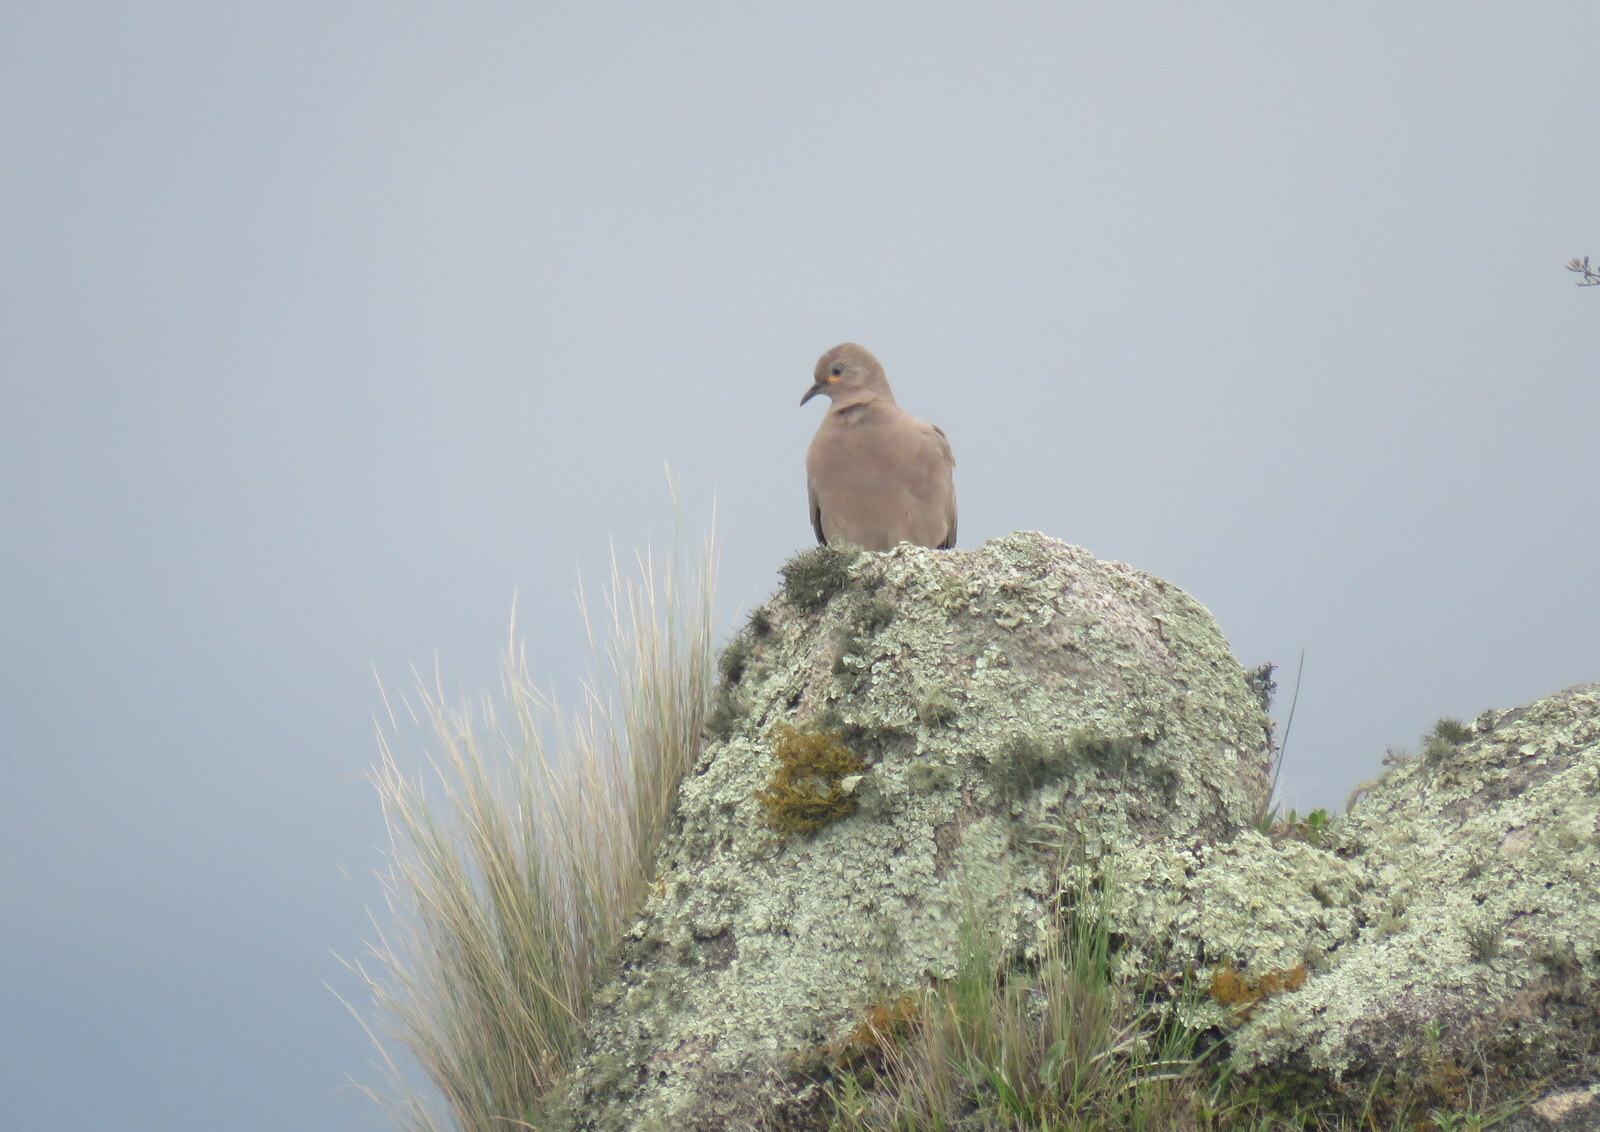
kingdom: Animalia
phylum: Chordata
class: Aves
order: Columbiformes
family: Columbidae
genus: Metriopelia
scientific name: Metriopelia melanoptera
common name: Black-winged ground dove
